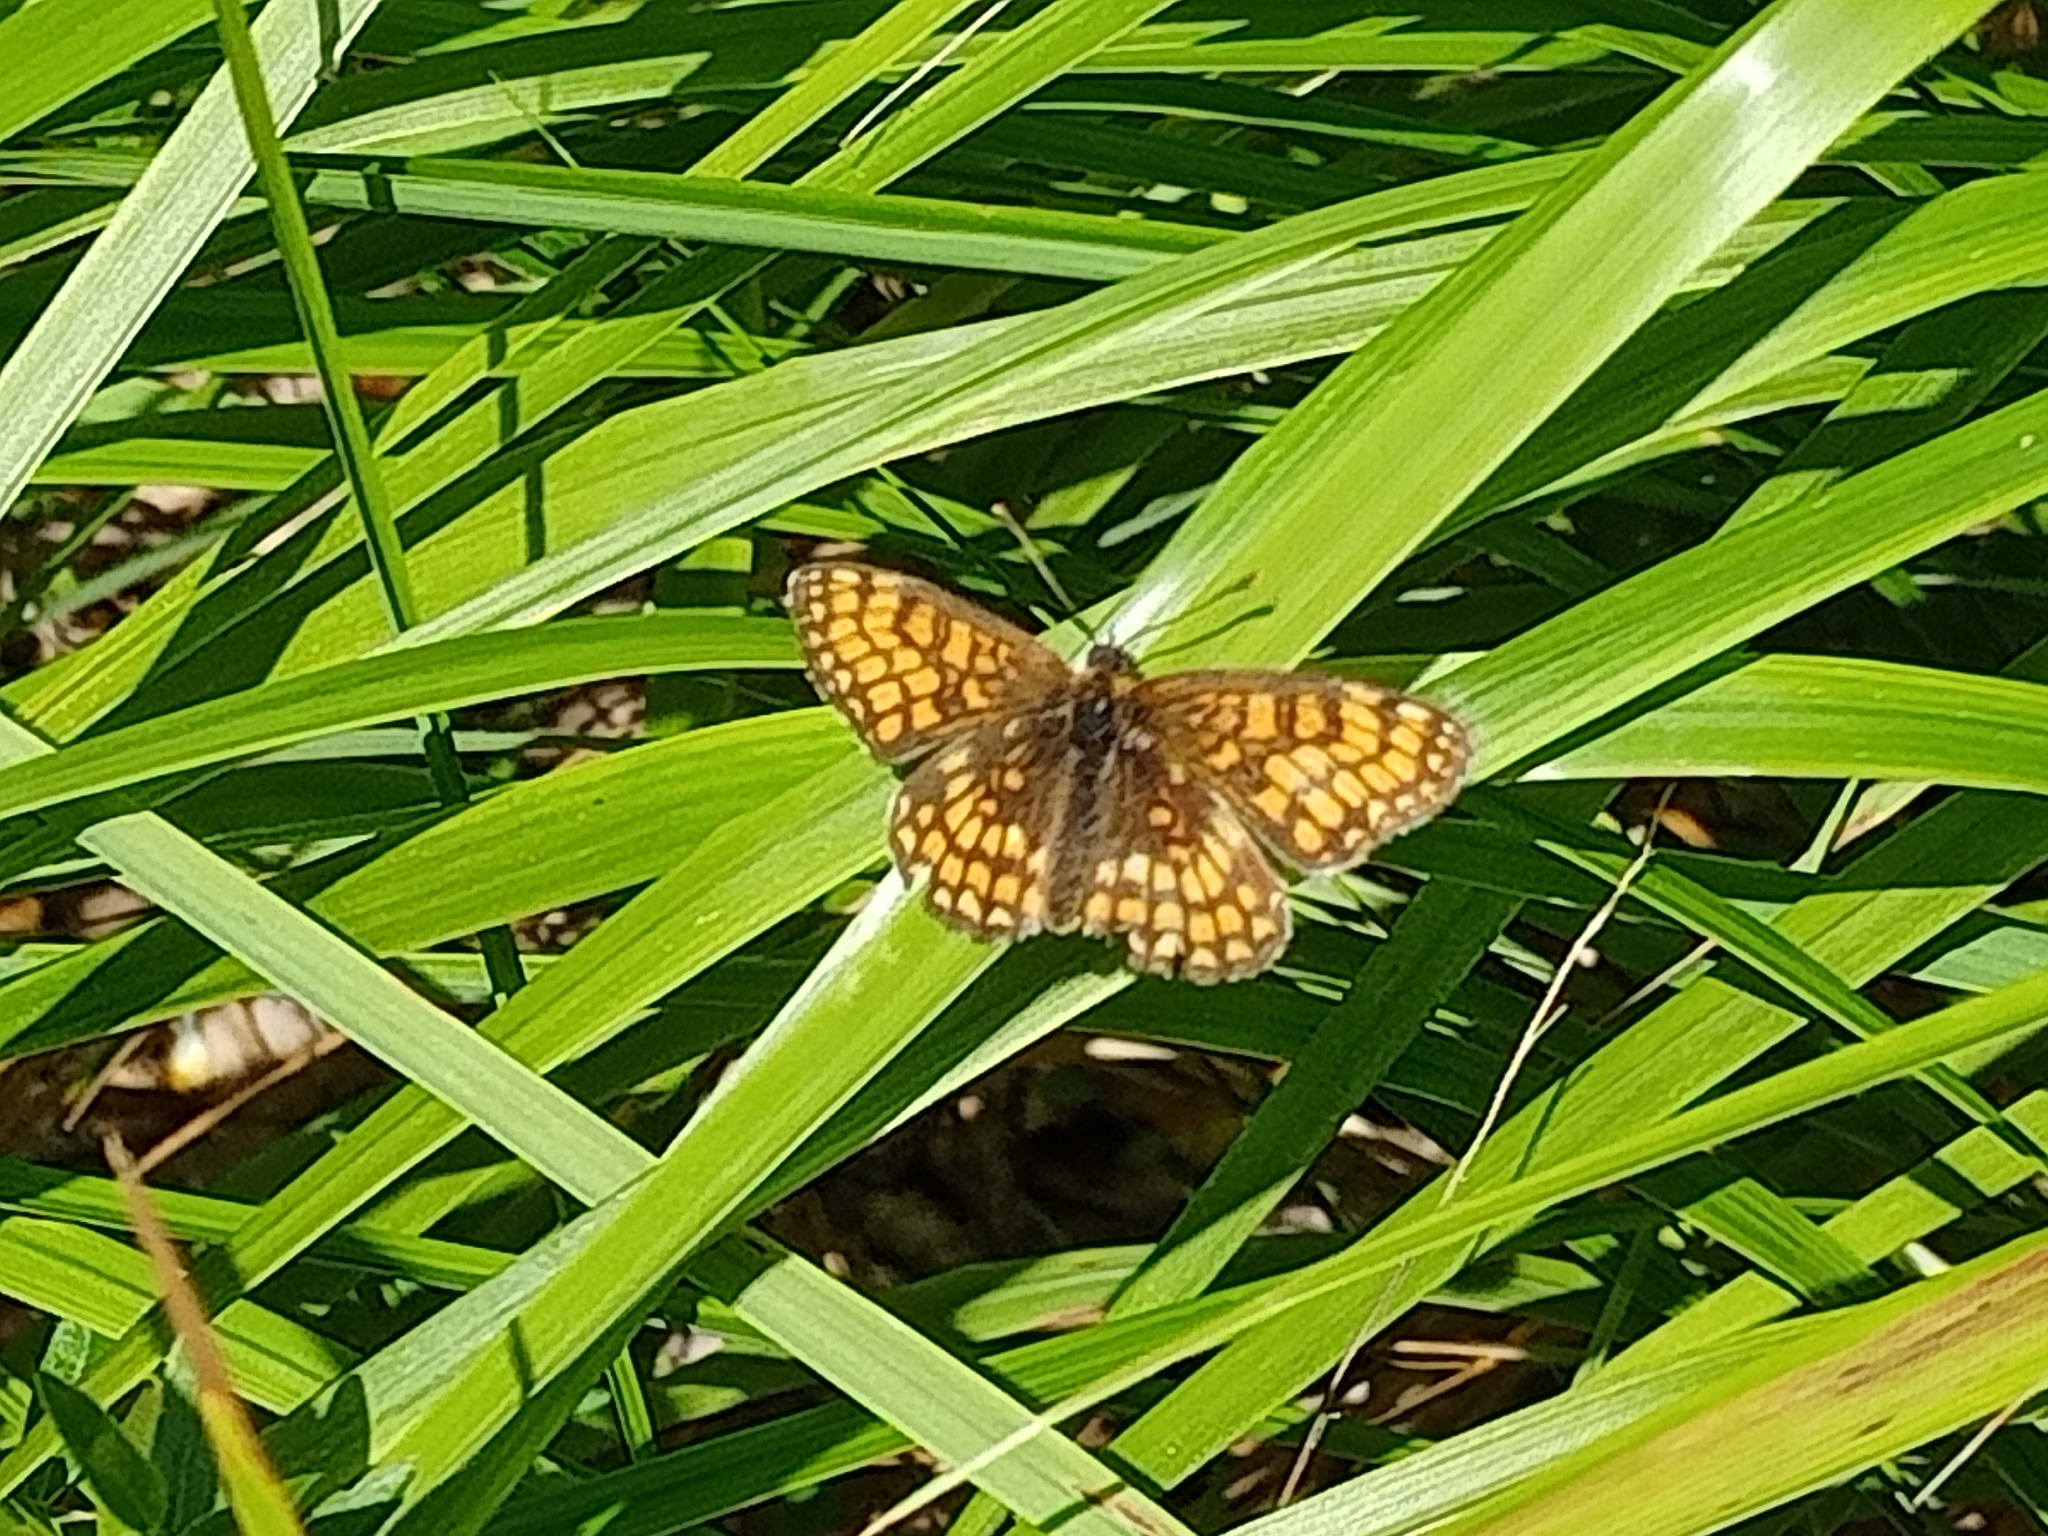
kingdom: Animalia
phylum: Arthropoda
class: Insecta
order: Lepidoptera
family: Nymphalidae
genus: Melitaea
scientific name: Melitaea athalia
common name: Heath fritillary
